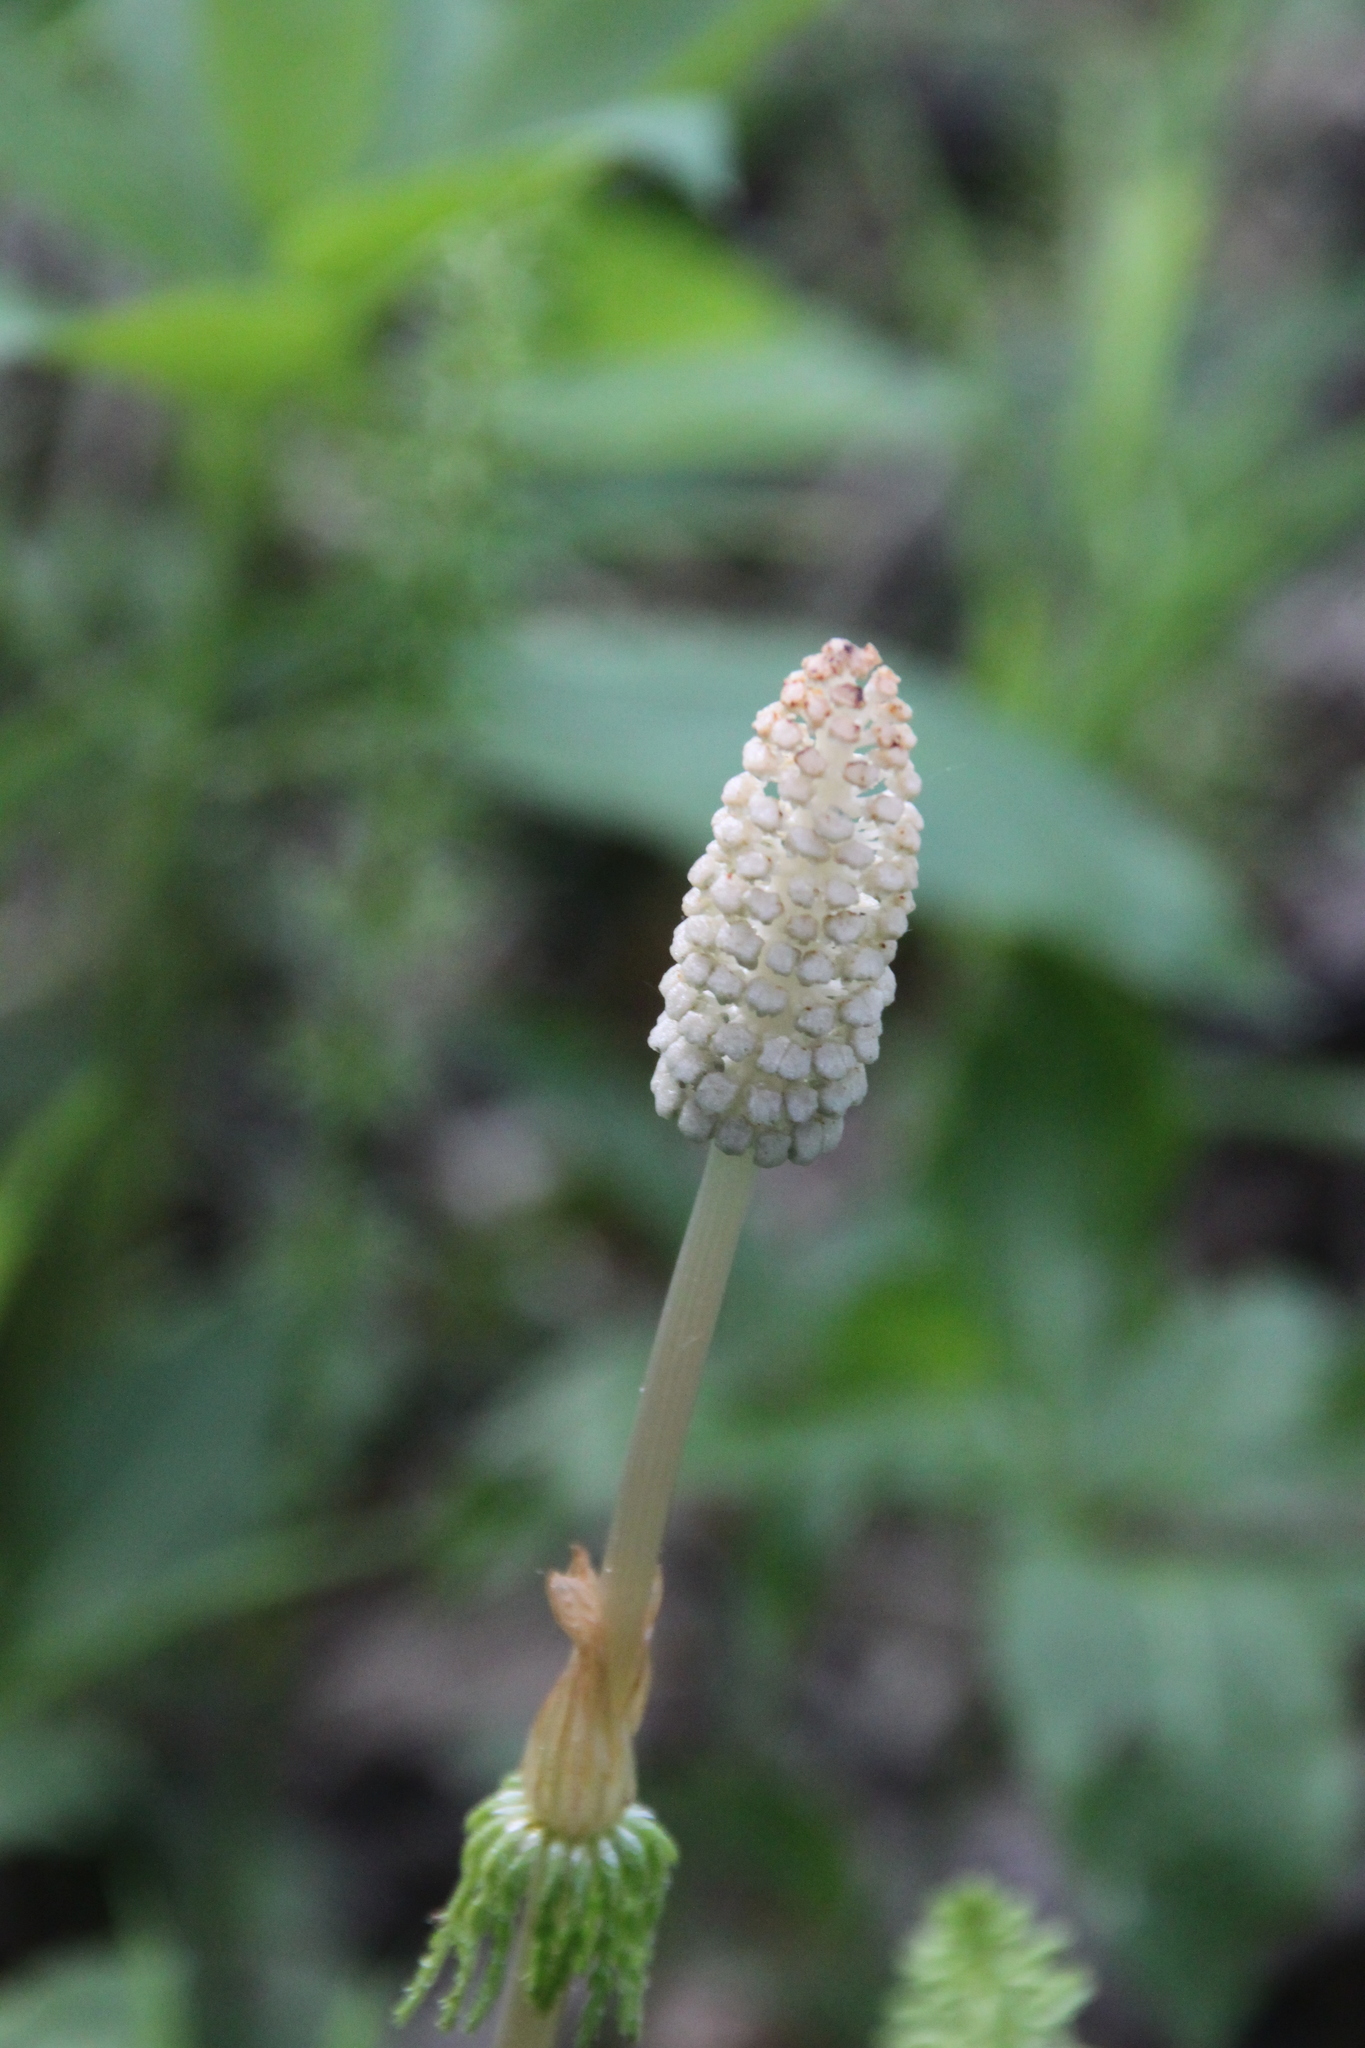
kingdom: Plantae
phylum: Tracheophyta
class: Polypodiopsida
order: Equisetales
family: Equisetaceae
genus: Equisetum
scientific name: Equisetum sylvaticum
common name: Wood horsetail
